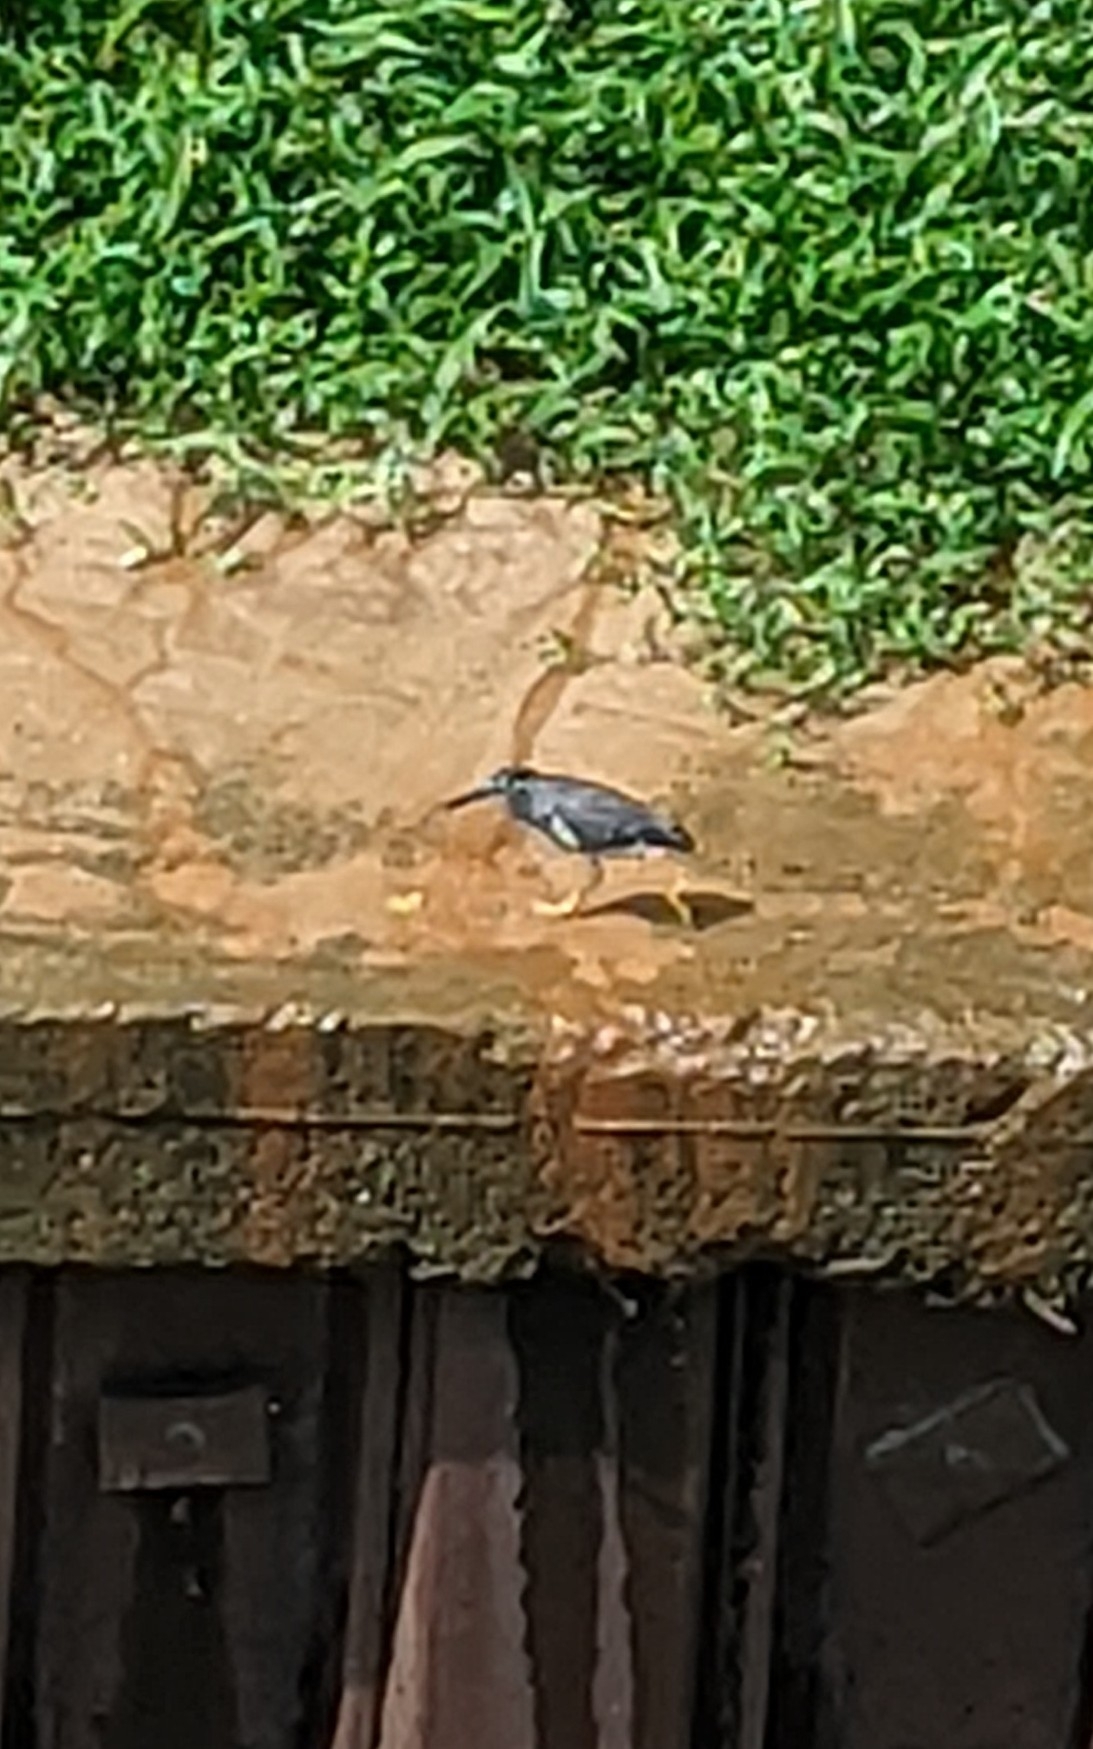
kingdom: Animalia
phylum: Chordata
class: Aves
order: Pelecaniformes
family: Ardeidae
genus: Butorides
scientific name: Butorides striata
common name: Striated heron
